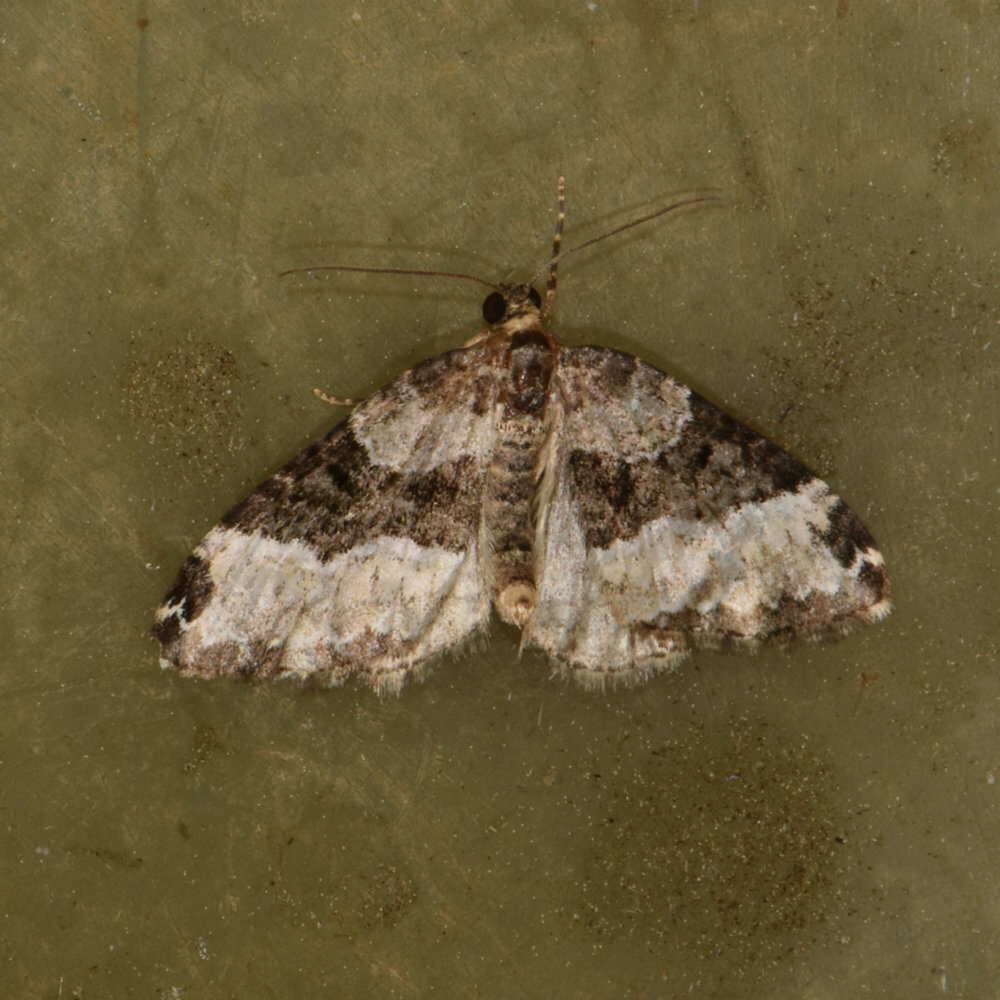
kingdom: Animalia
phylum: Arthropoda
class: Insecta
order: Lepidoptera
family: Geometridae
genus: Euphyia
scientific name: Euphyia intermediata
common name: Sharp-angled carpet
